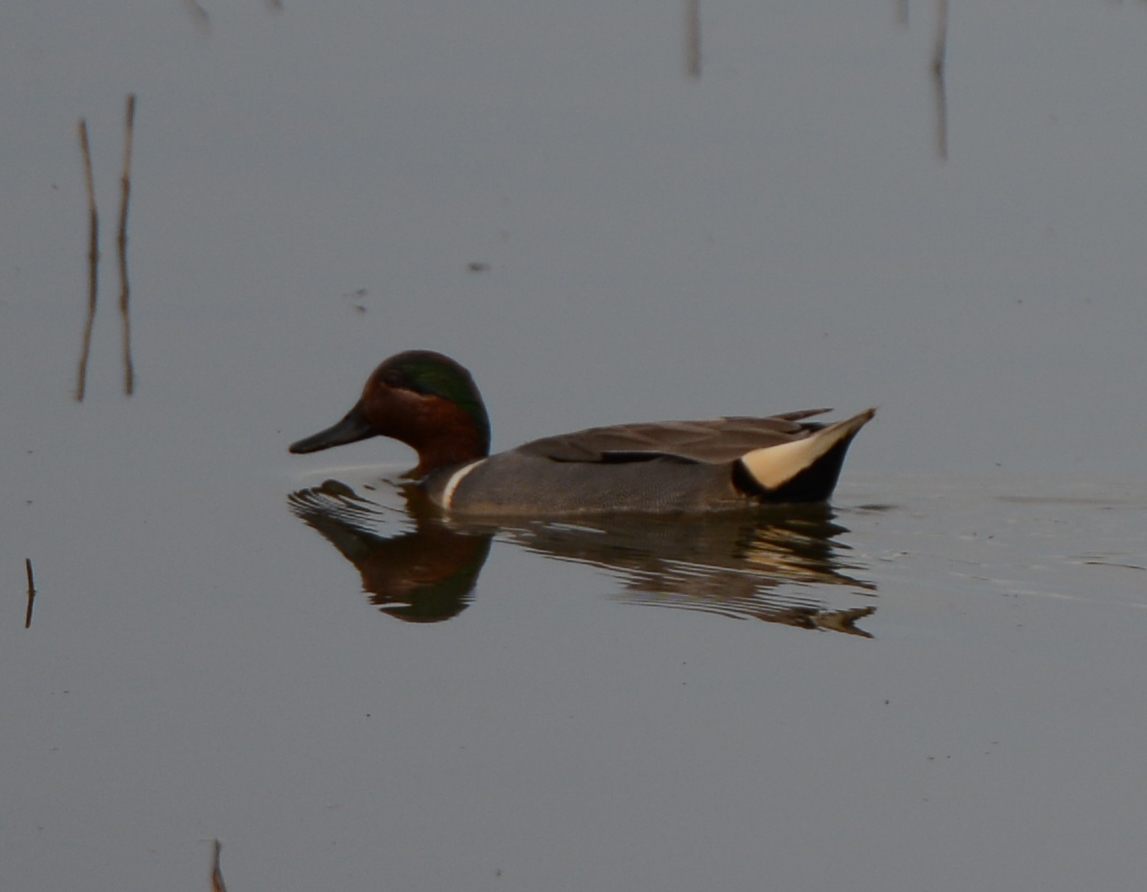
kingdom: Animalia
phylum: Chordata
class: Aves
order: Anseriformes
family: Anatidae
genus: Anas
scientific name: Anas crecca
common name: Eurasian teal
